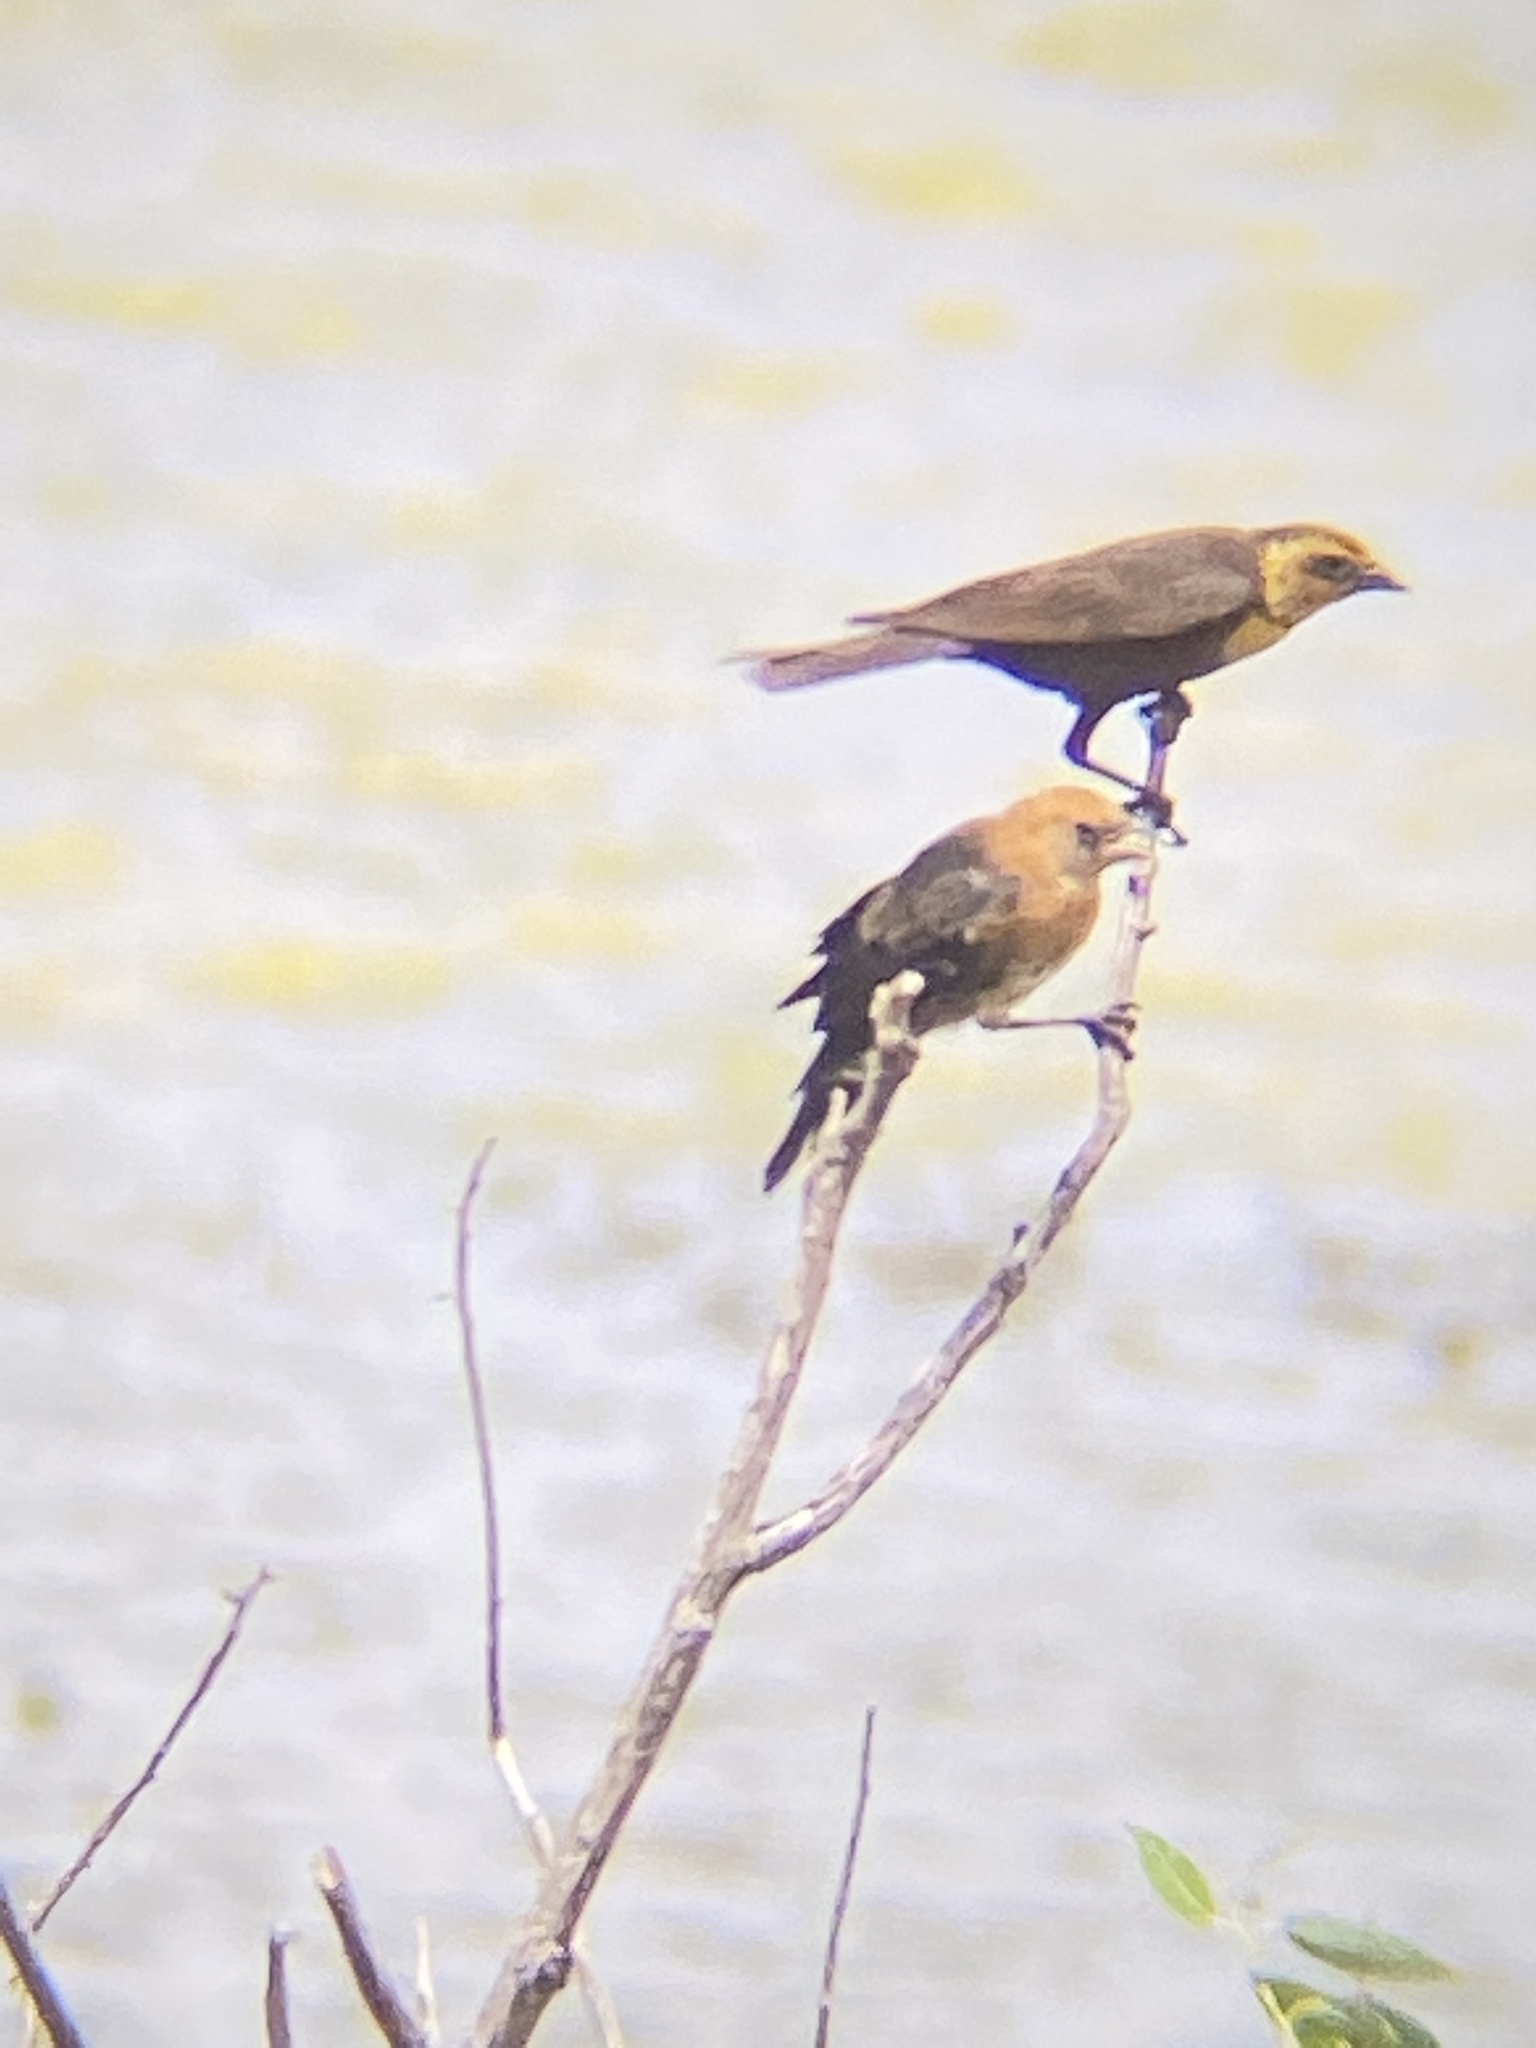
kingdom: Animalia
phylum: Chordata
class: Aves
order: Passeriformes
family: Icteridae
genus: Xanthocephalus
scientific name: Xanthocephalus xanthocephalus
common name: Yellow-headed blackbird
